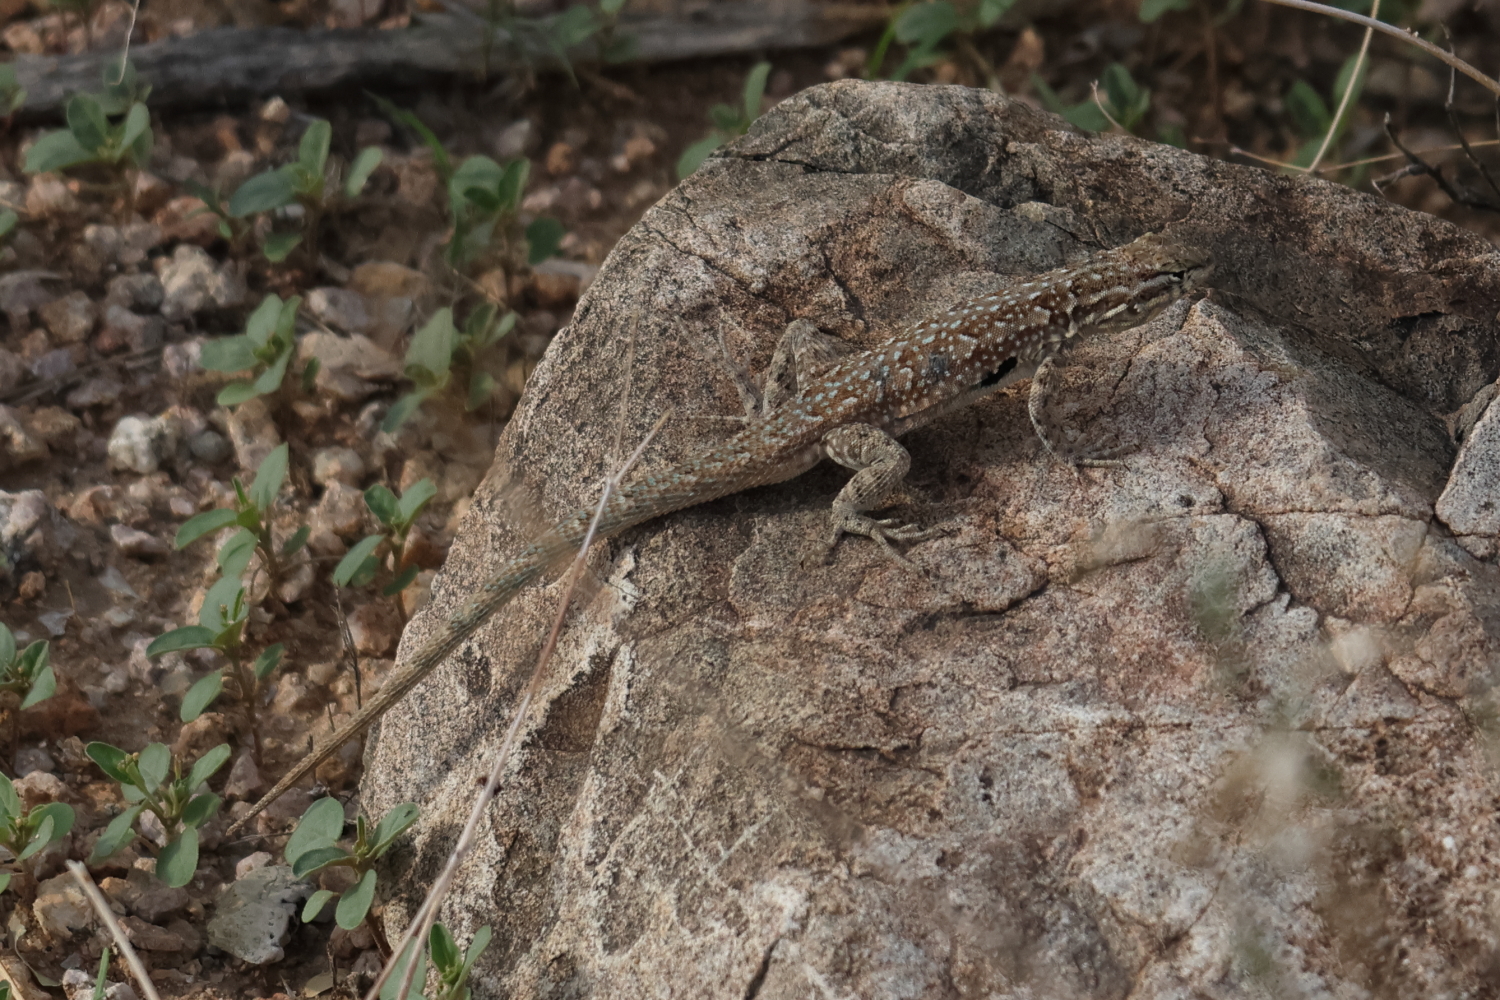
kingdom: Animalia
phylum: Chordata
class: Squamata
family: Phrynosomatidae
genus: Uta
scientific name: Uta stansburiana
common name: Side-blotched lizard
